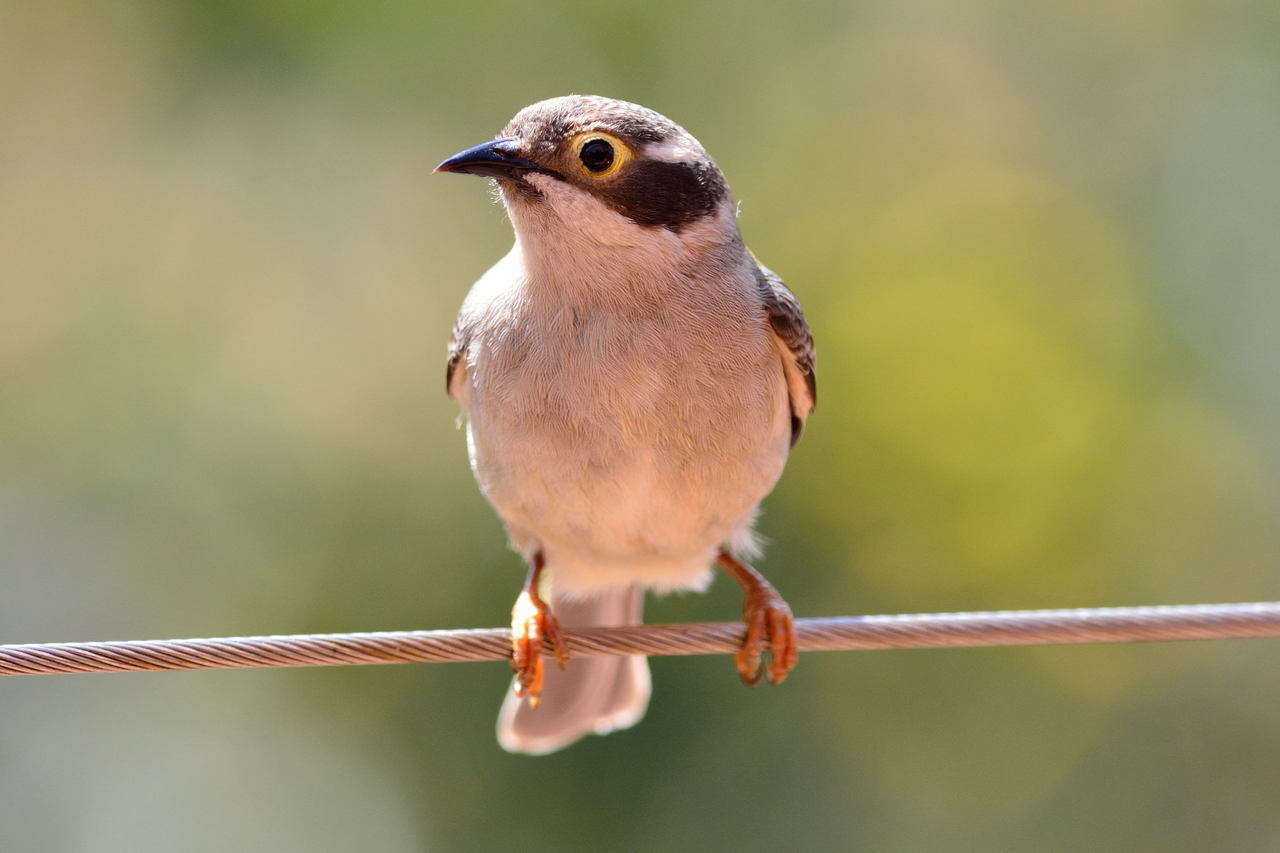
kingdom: Animalia
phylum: Chordata
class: Aves
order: Passeriformes
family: Meliphagidae
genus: Melithreptus
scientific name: Melithreptus brevirostris
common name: Brown-headed honeyeater
